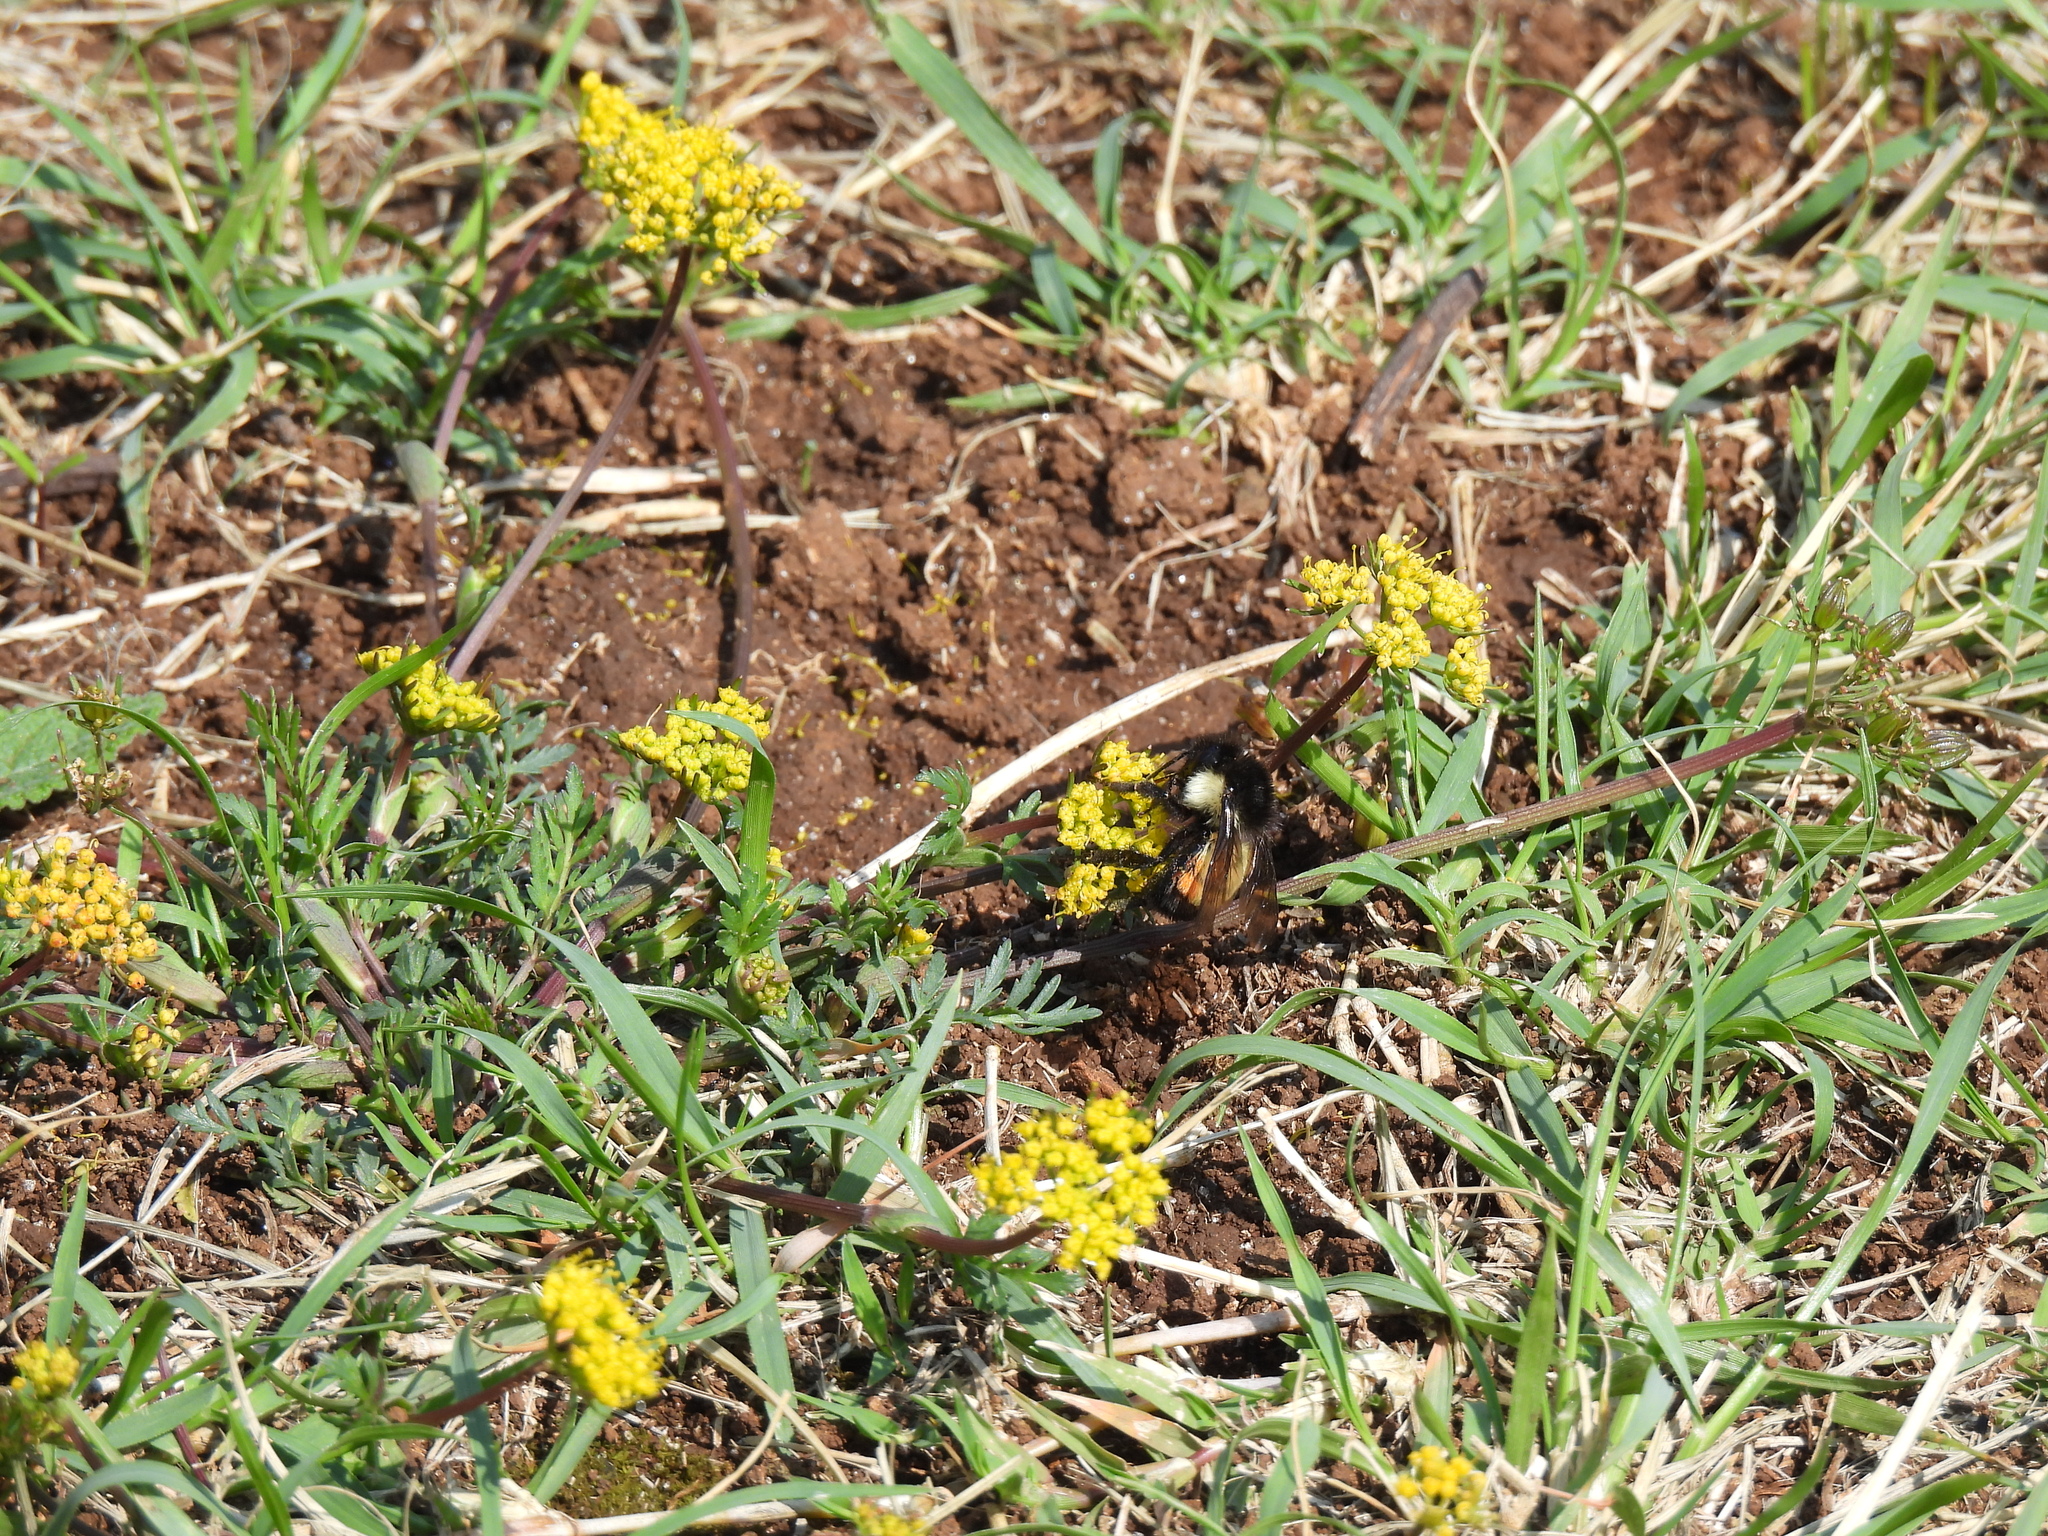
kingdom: Animalia
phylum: Arthropoda
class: Insecta
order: Hymenoptera
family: Apidae
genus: Bombus
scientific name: Bombus ephippiatus
